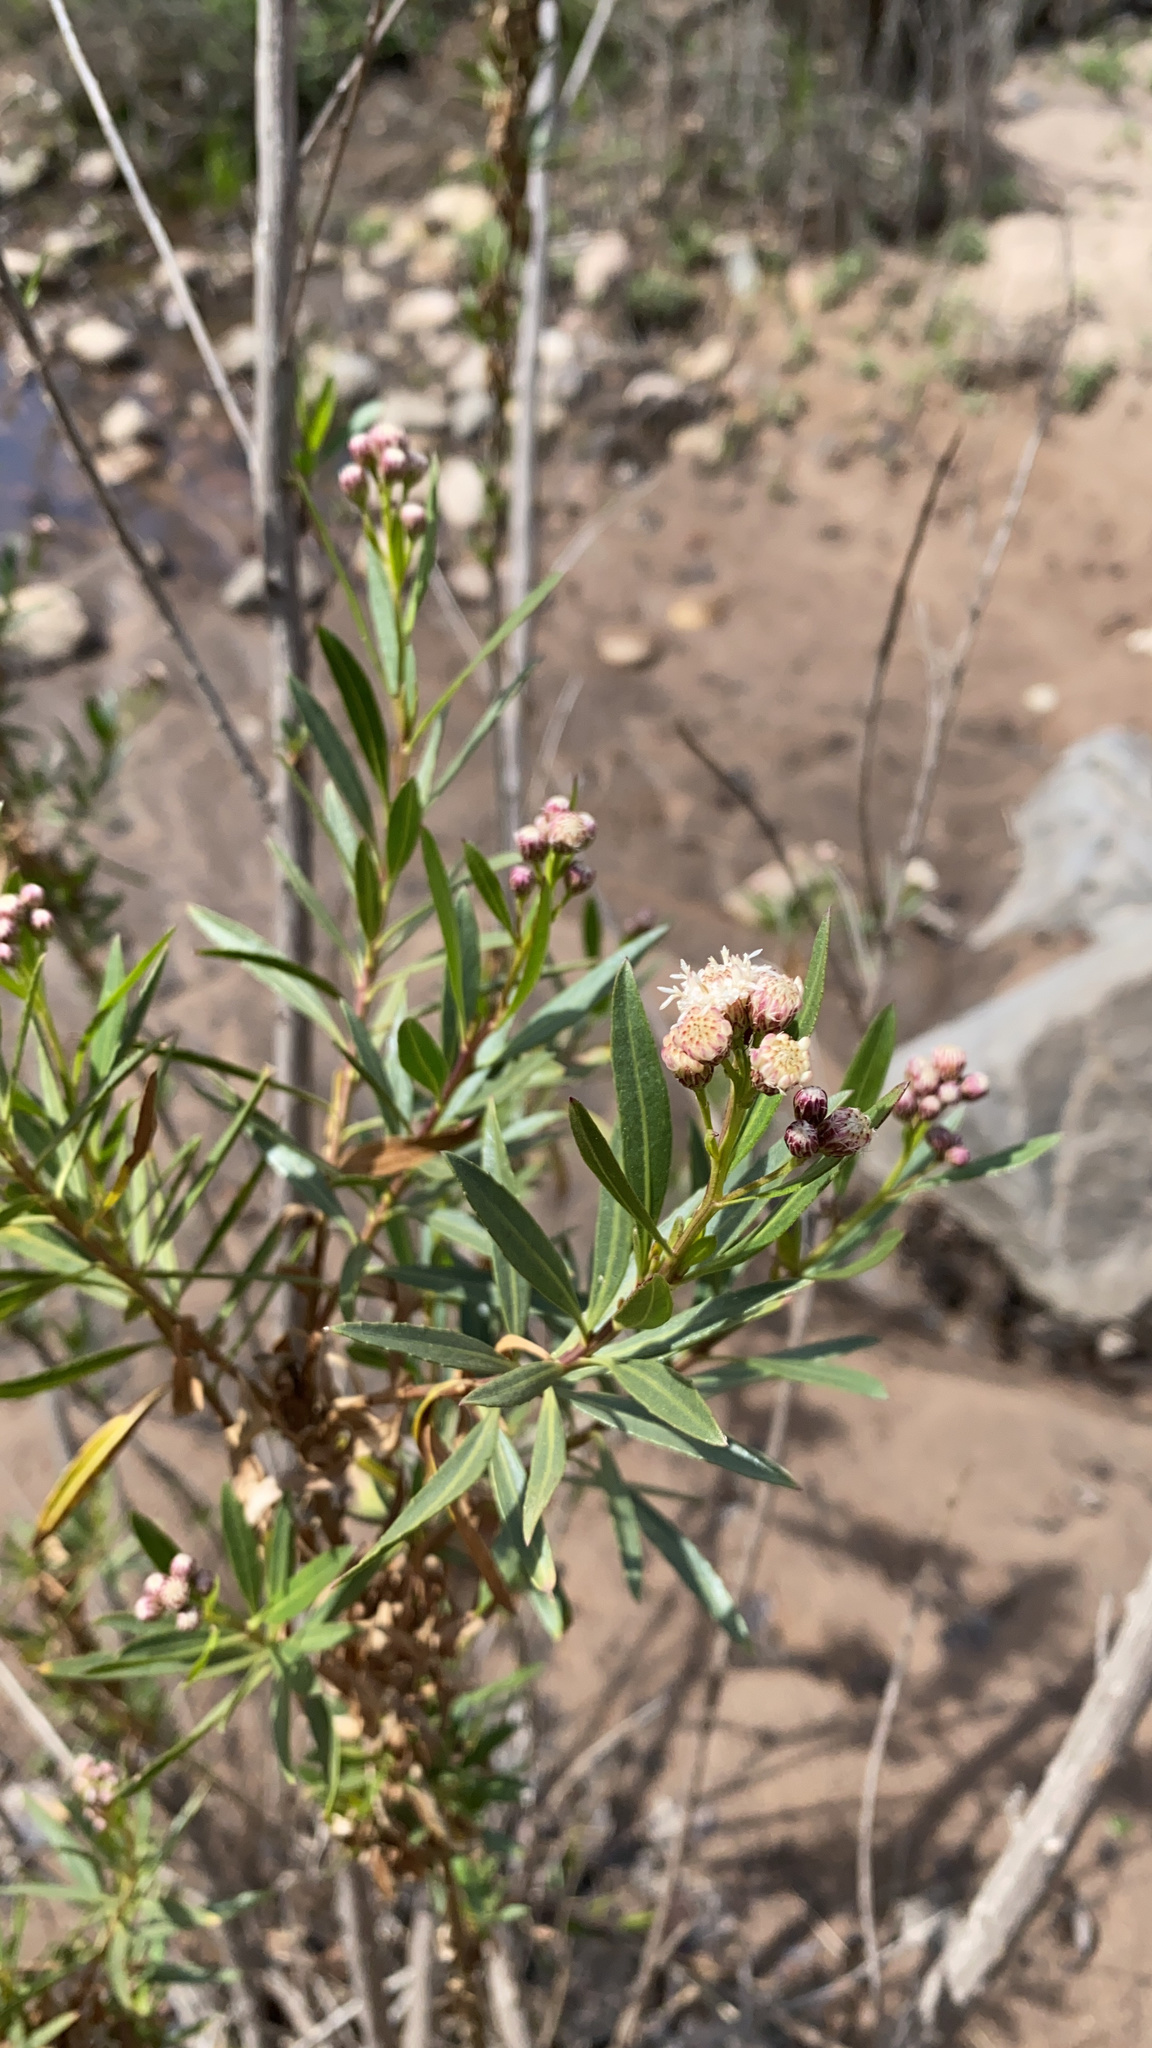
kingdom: Plantae
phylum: Tracheophyta
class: Magnoliopsida
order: Asterales
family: Asteraceae
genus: Baccharis
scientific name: Baccharis salicifolia
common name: Sticky baccharis
